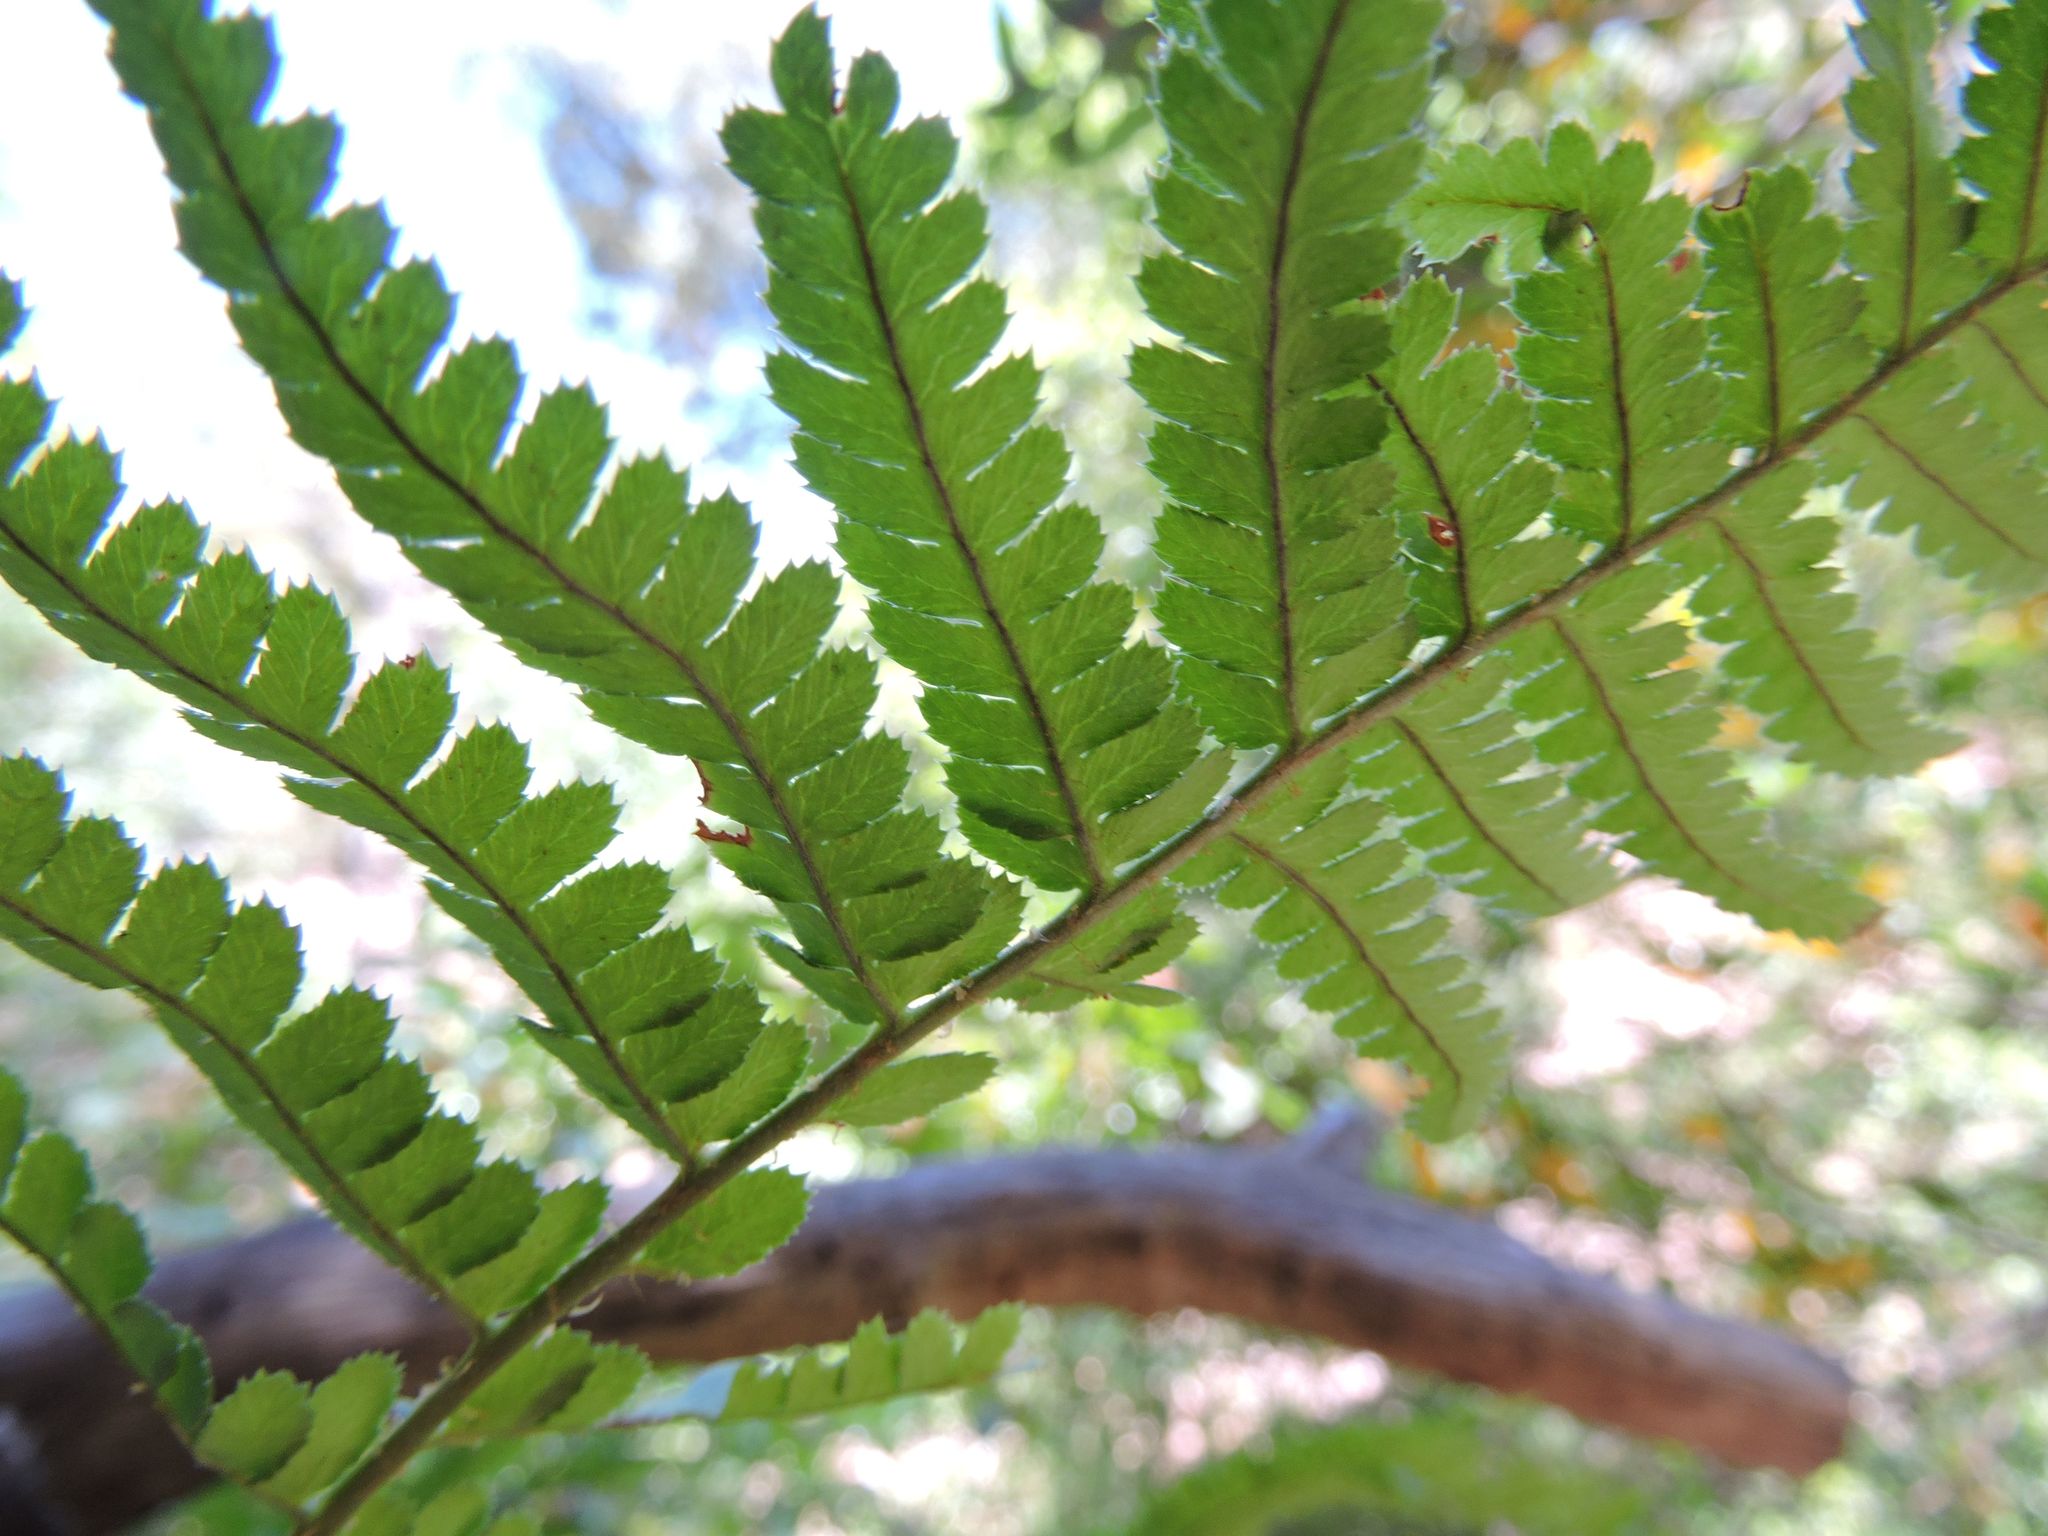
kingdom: Plantae
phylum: Tracheophyta
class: Polypodiopsida
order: Polypodiales
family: Dryopteridaceae
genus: Dryopteris
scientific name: Dryopteris arguta
